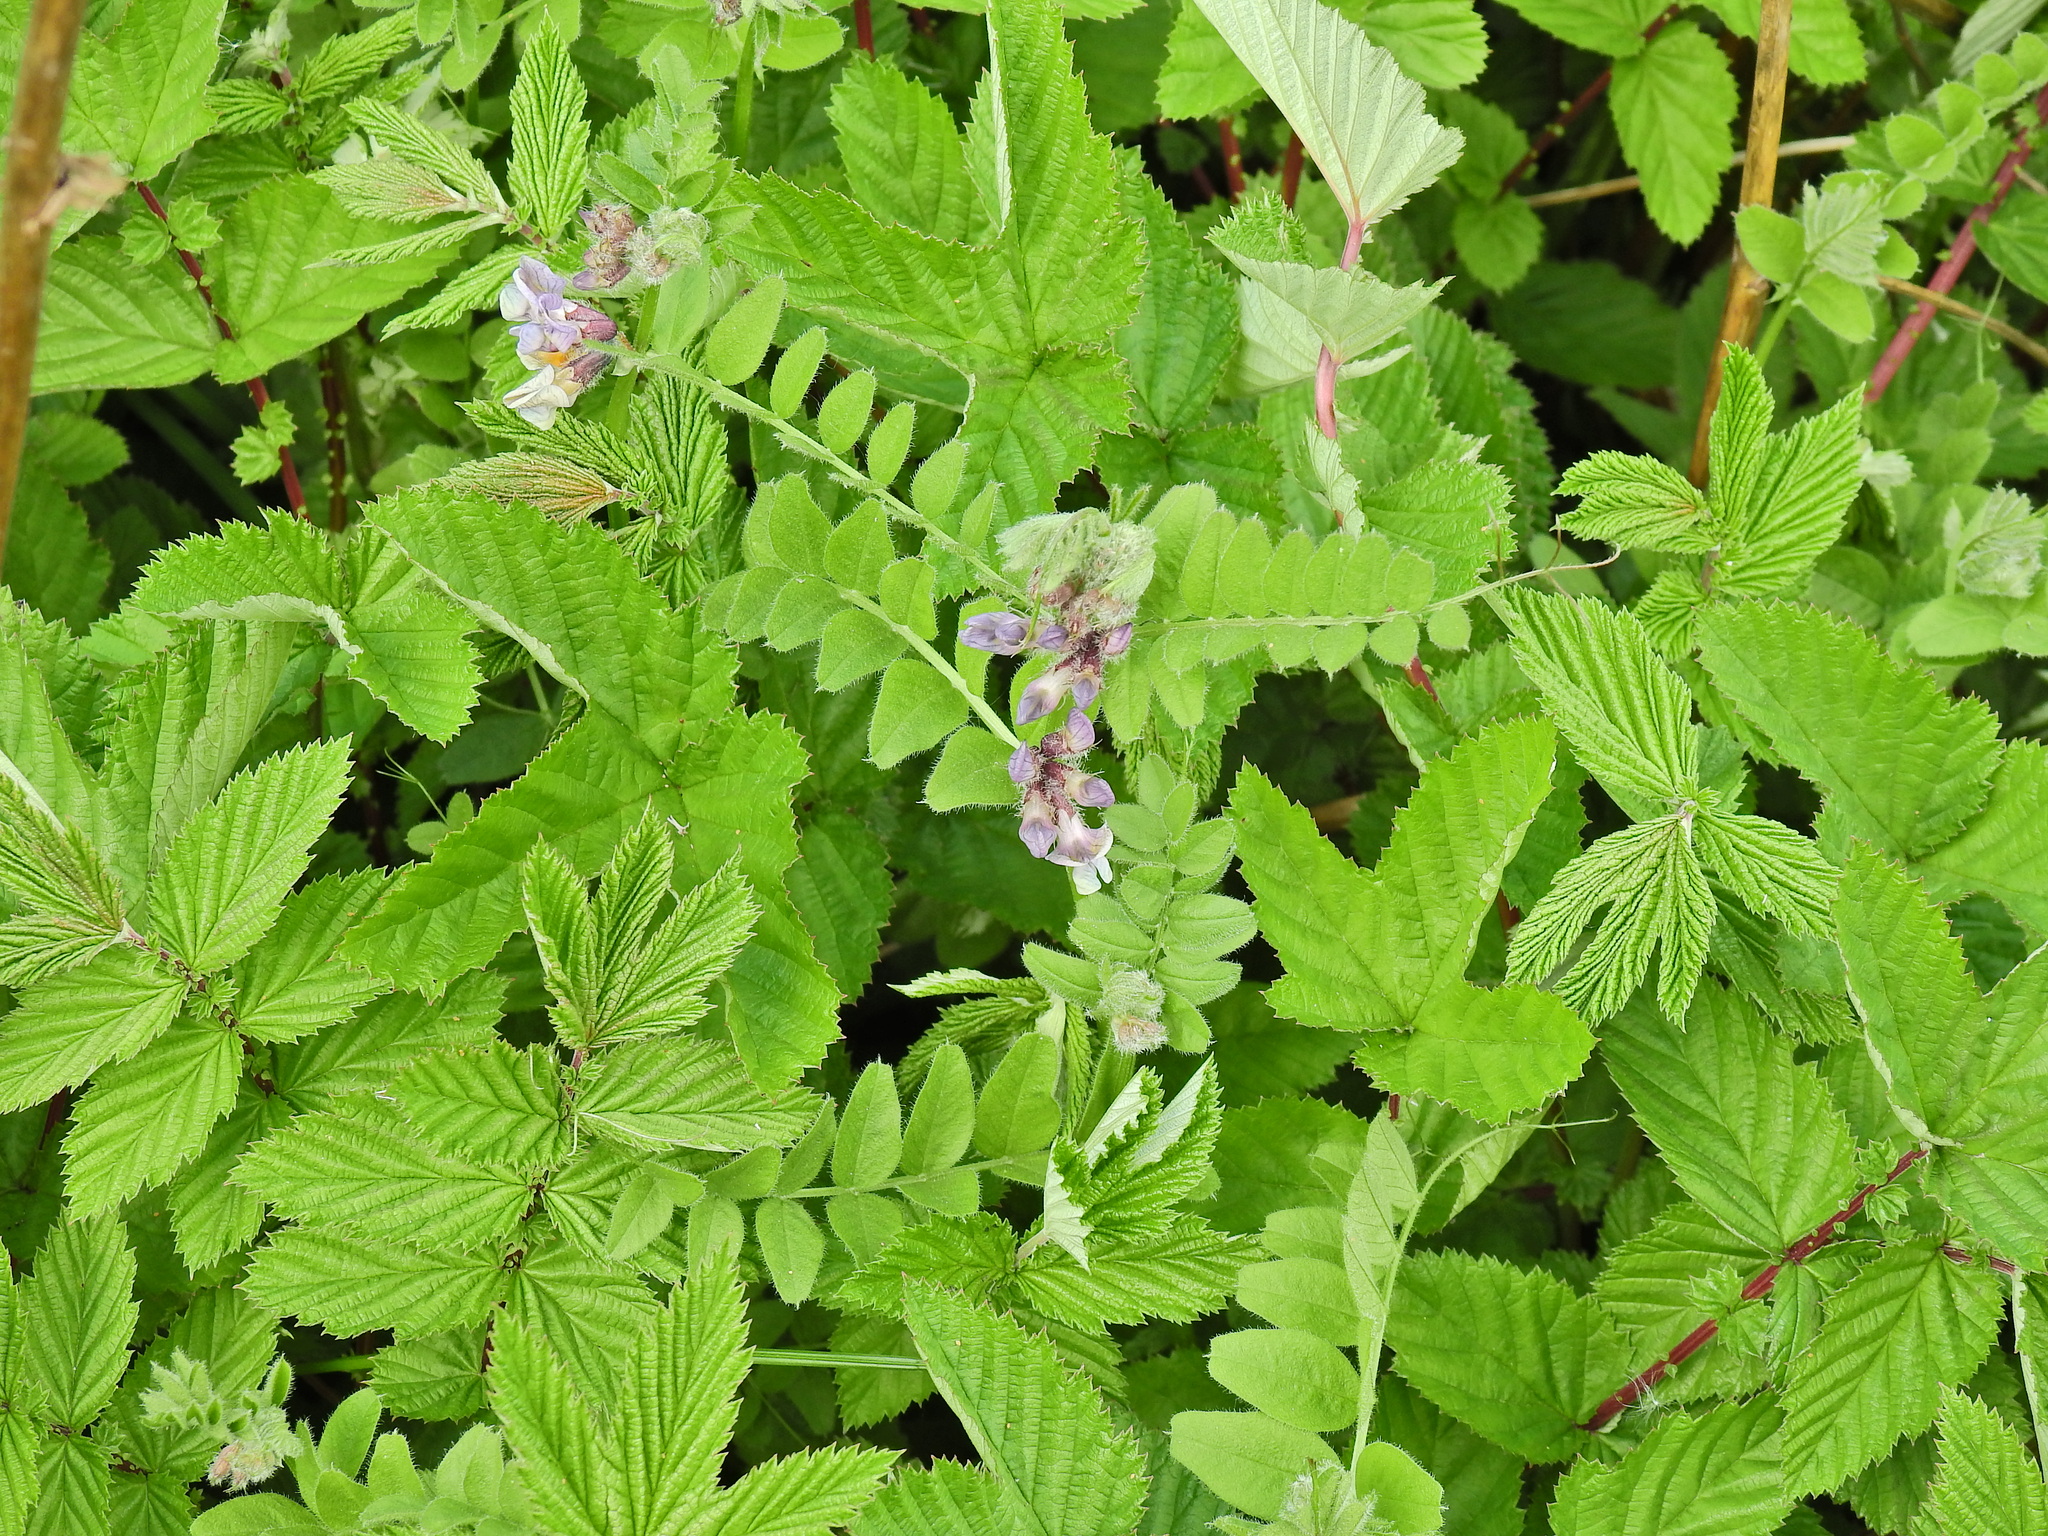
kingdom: Plantae
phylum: Tracheophyta
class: Magnoliopsida
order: Fabales
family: Fabaceae
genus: Vicia
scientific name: Vicia sepium
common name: Bush vetch
